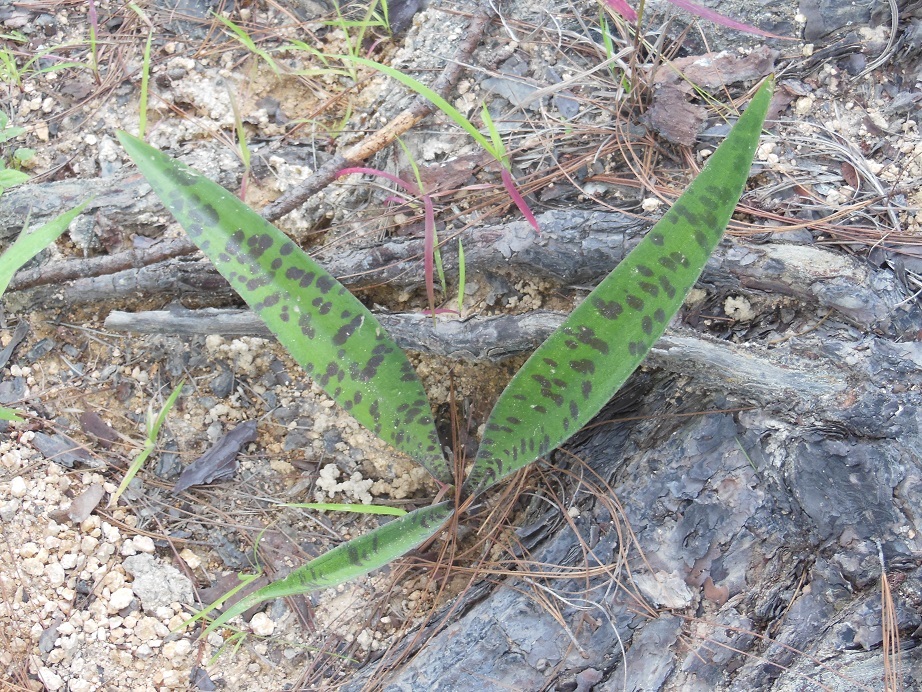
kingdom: Plantae
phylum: Tracheophyta
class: Liliopsida
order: Asparagales
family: Asparagaceae
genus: Agave
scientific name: Agave pubescens
